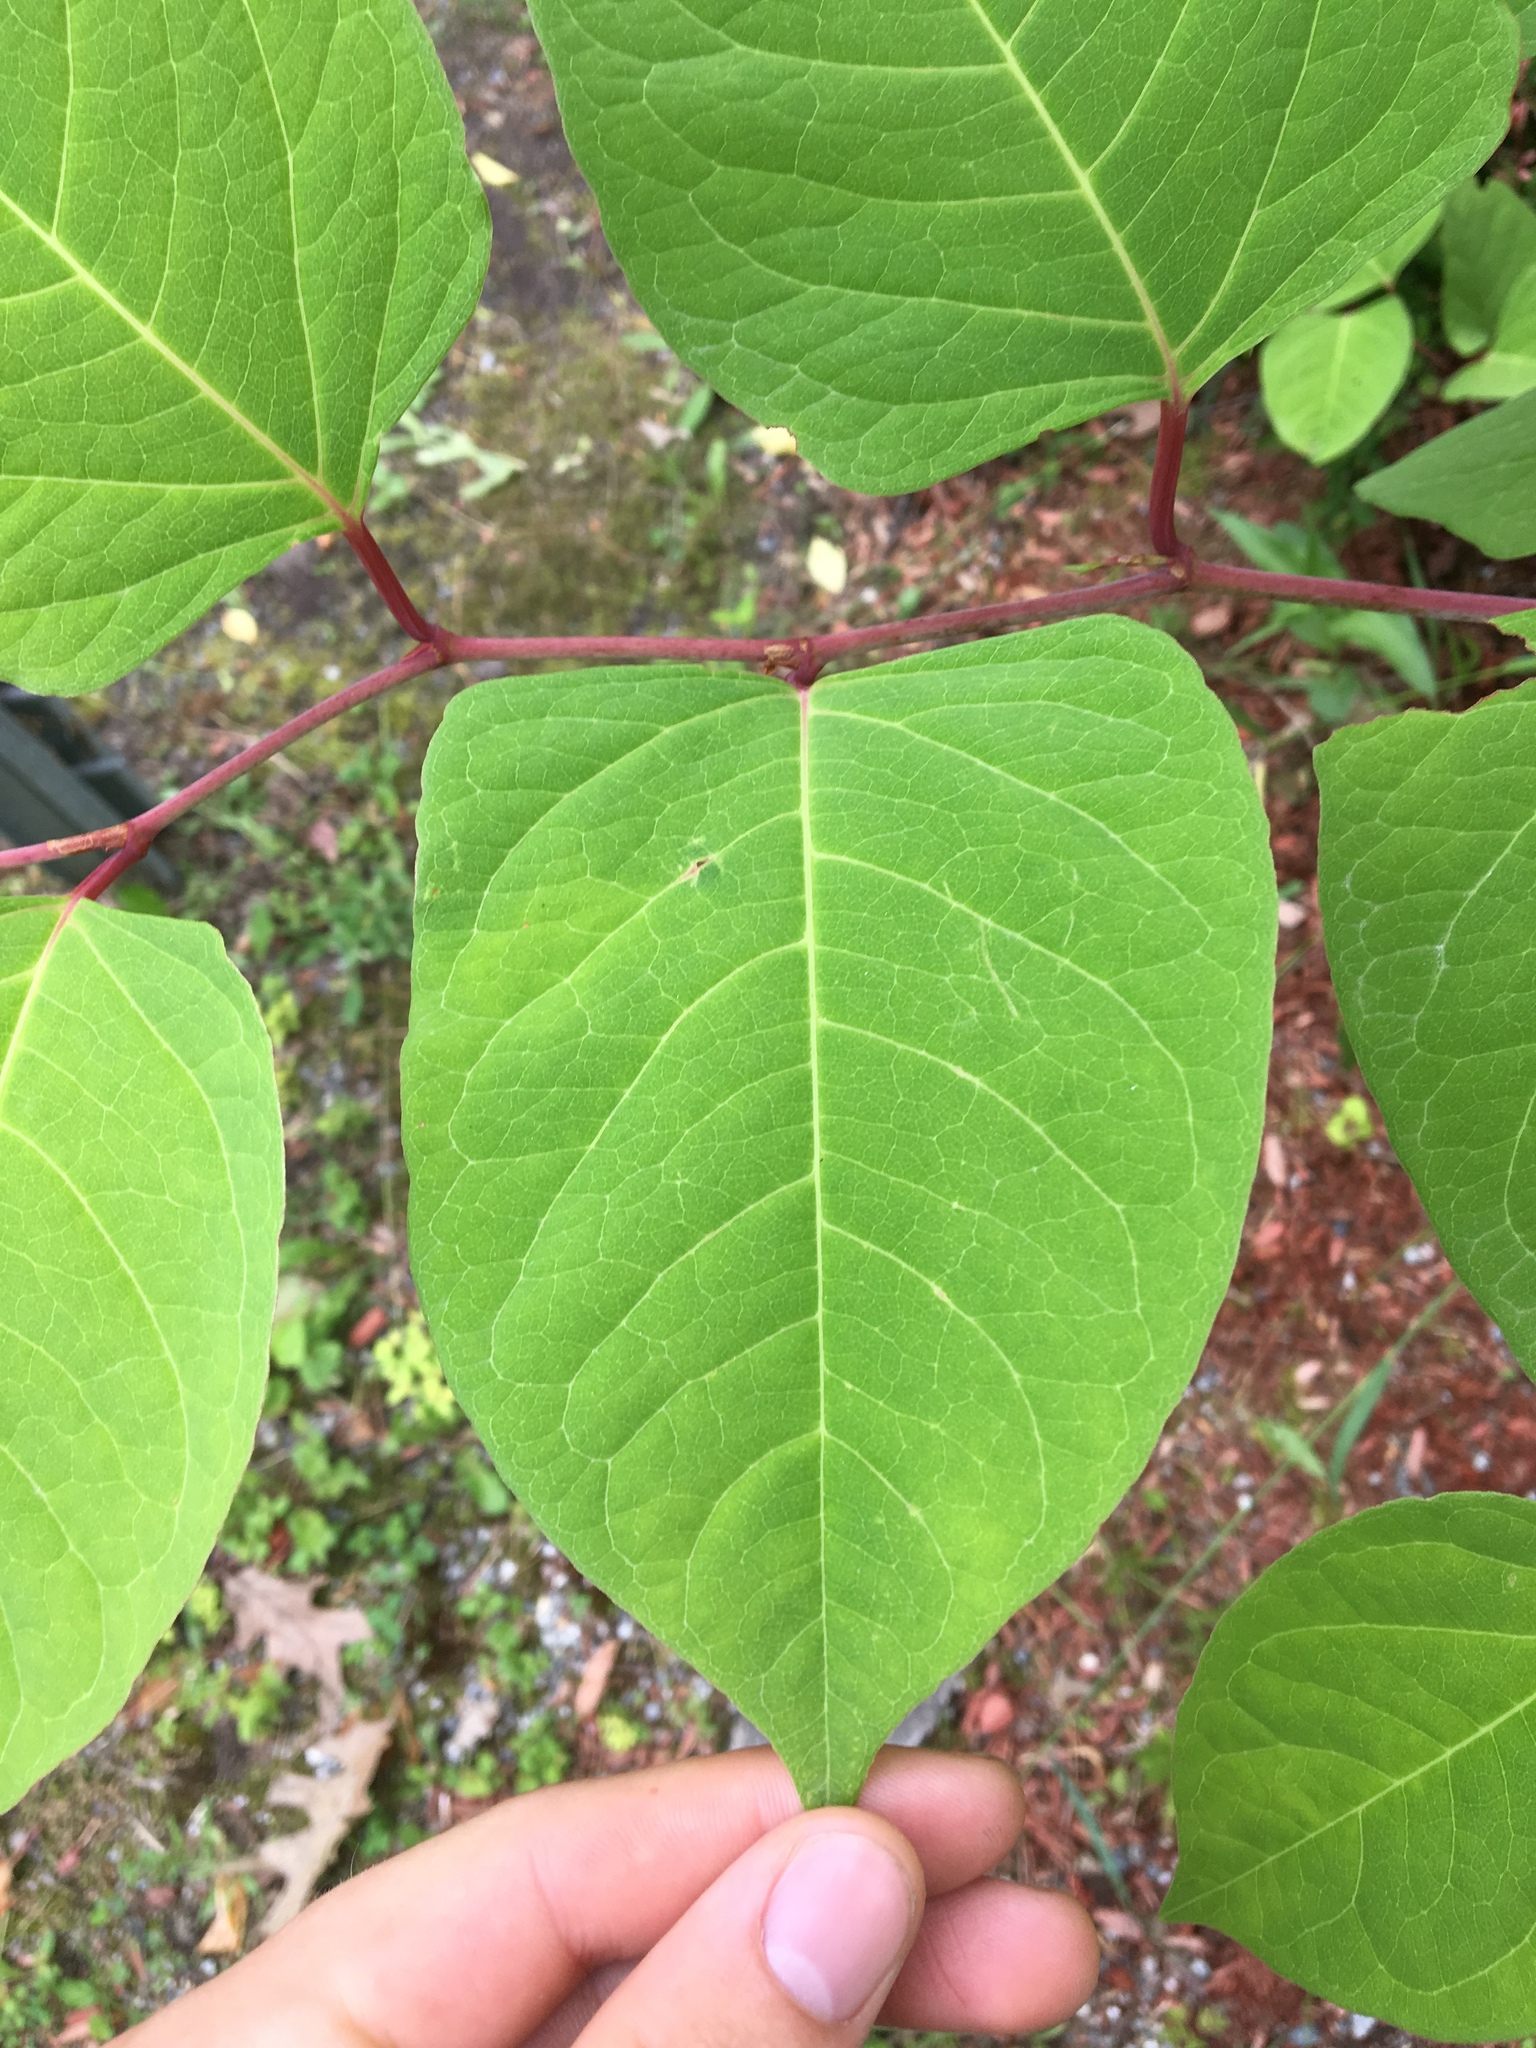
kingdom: Plantae
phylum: Tracheophyta
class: Magnoliopsida
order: Caryophyllales
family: Polygonaceae
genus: Reynoutria
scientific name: Reynoutria japonica
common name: Japanese knotweed
